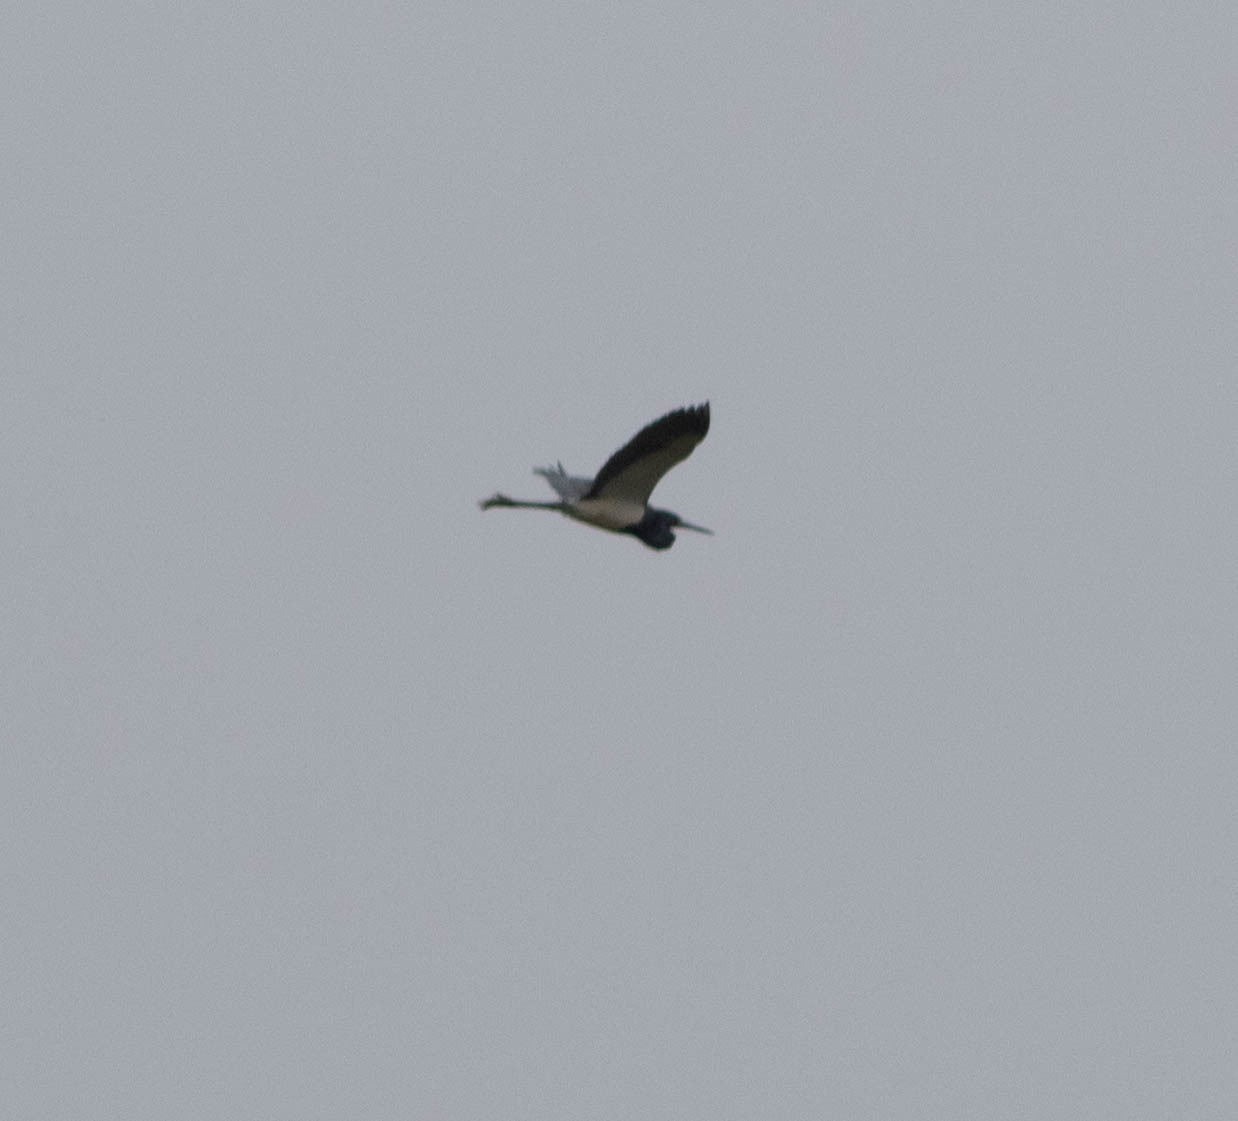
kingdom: Animalia
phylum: Chordata
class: Aves
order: Pelecaniformes
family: Ardeidae
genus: Egretta
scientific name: Egretta tricolor
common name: Tricolored heron
